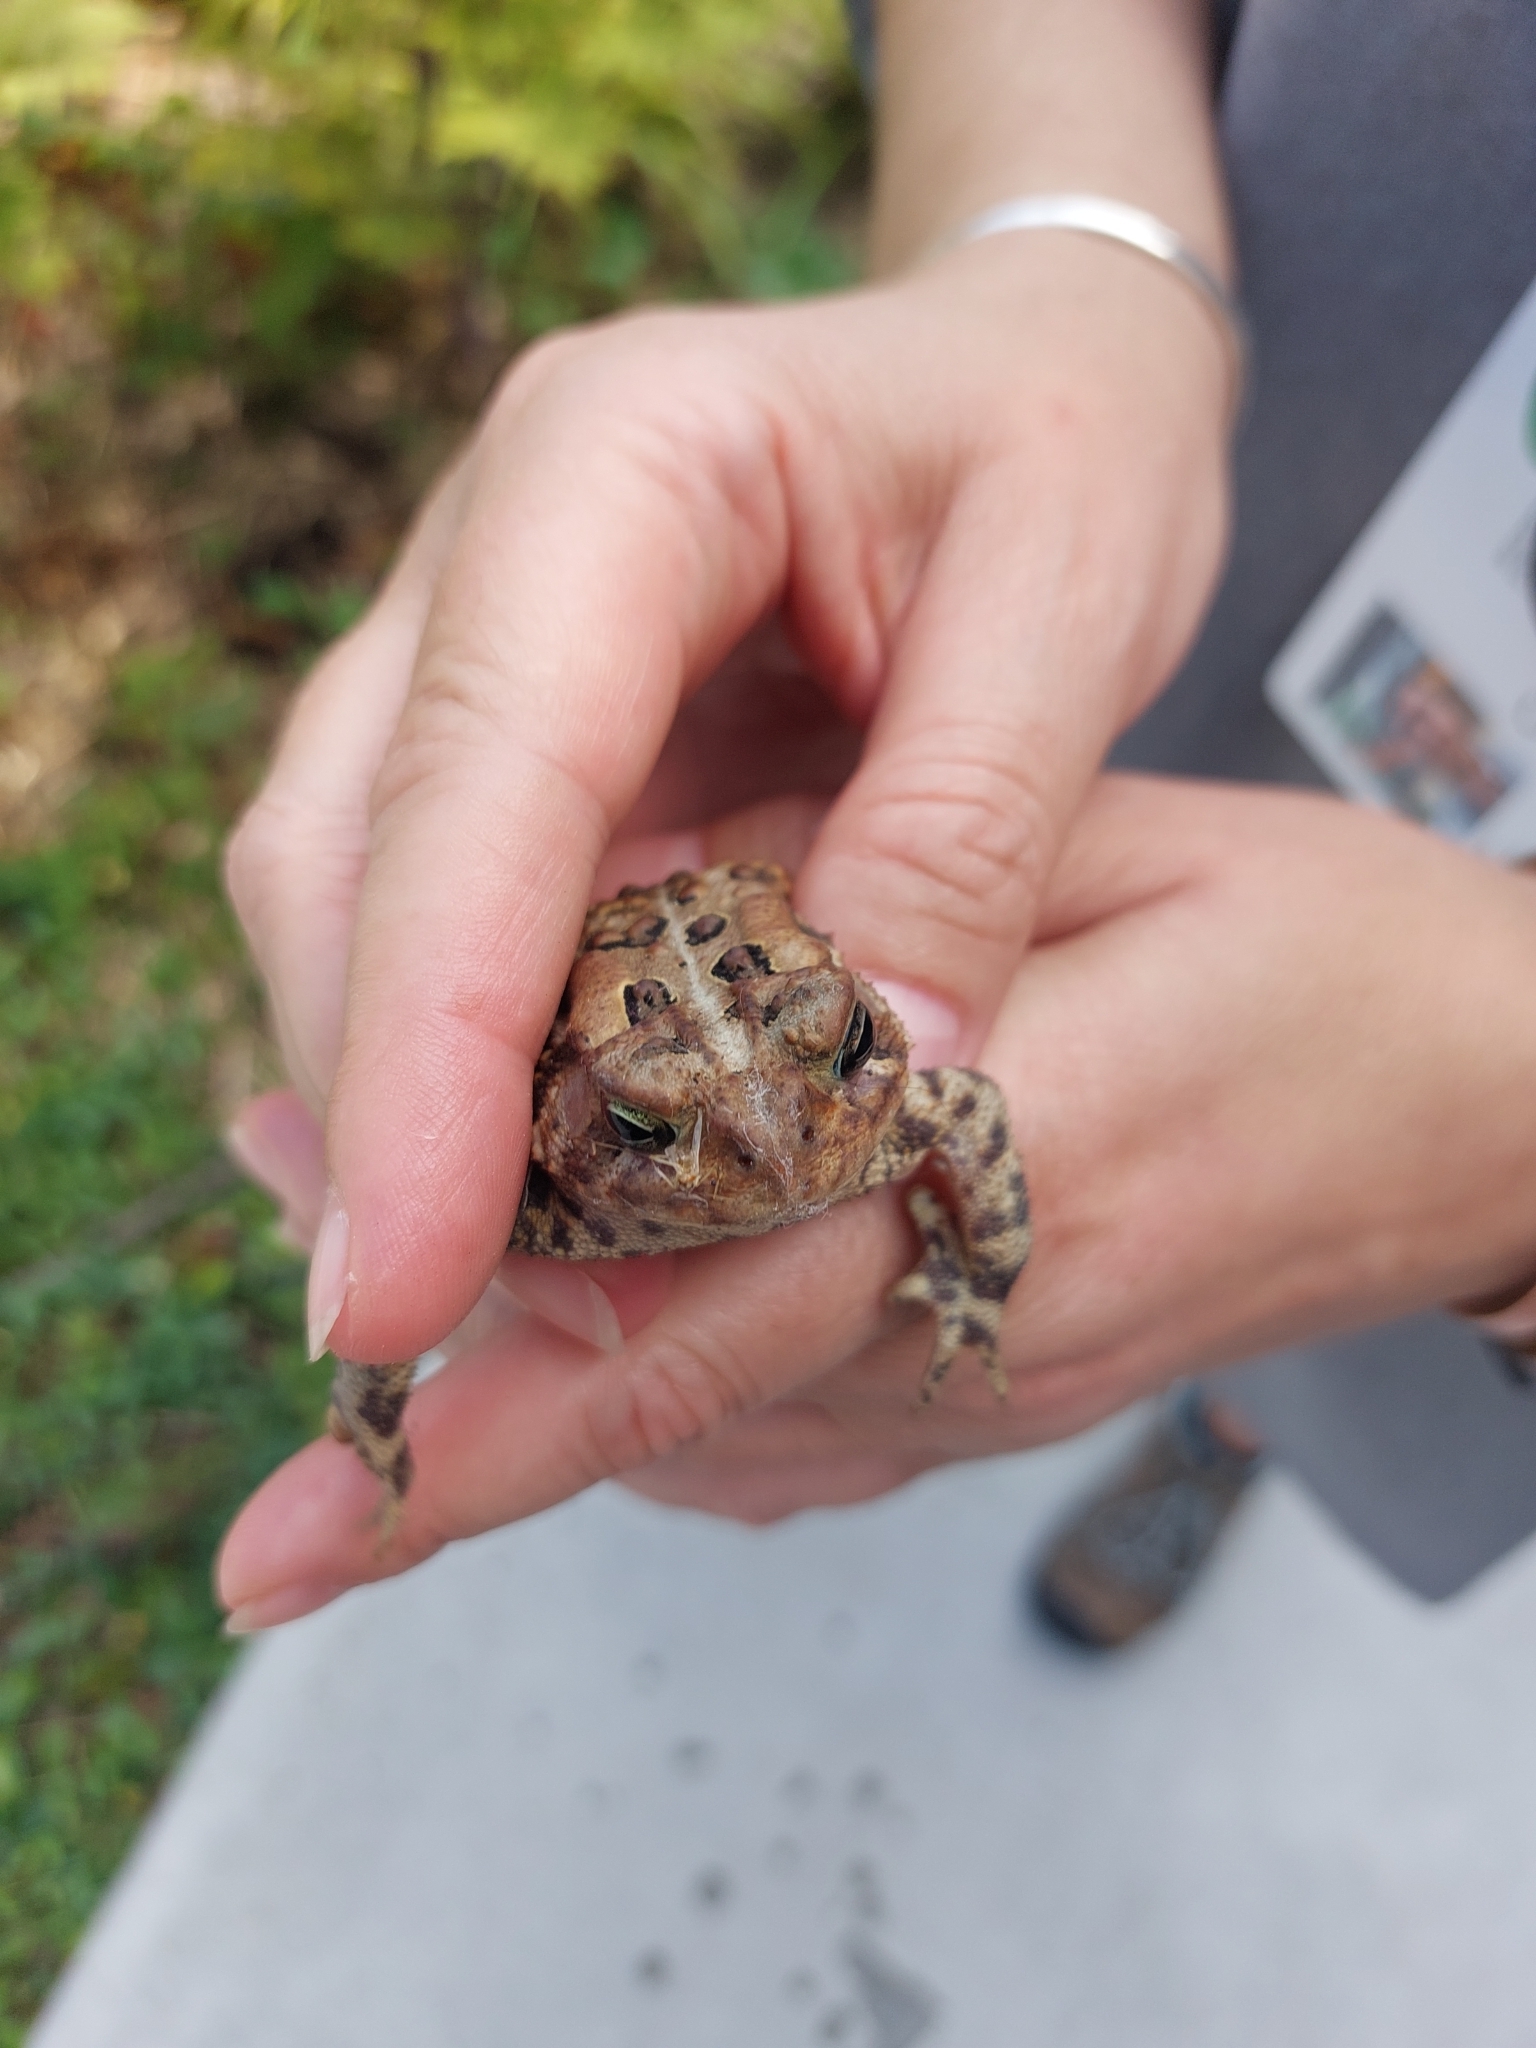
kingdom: Animalia
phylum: Chordata
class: Amphibia
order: Anura
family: Bufonidae
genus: Anaxyrus
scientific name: Anaxyrus americanus
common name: American toad
